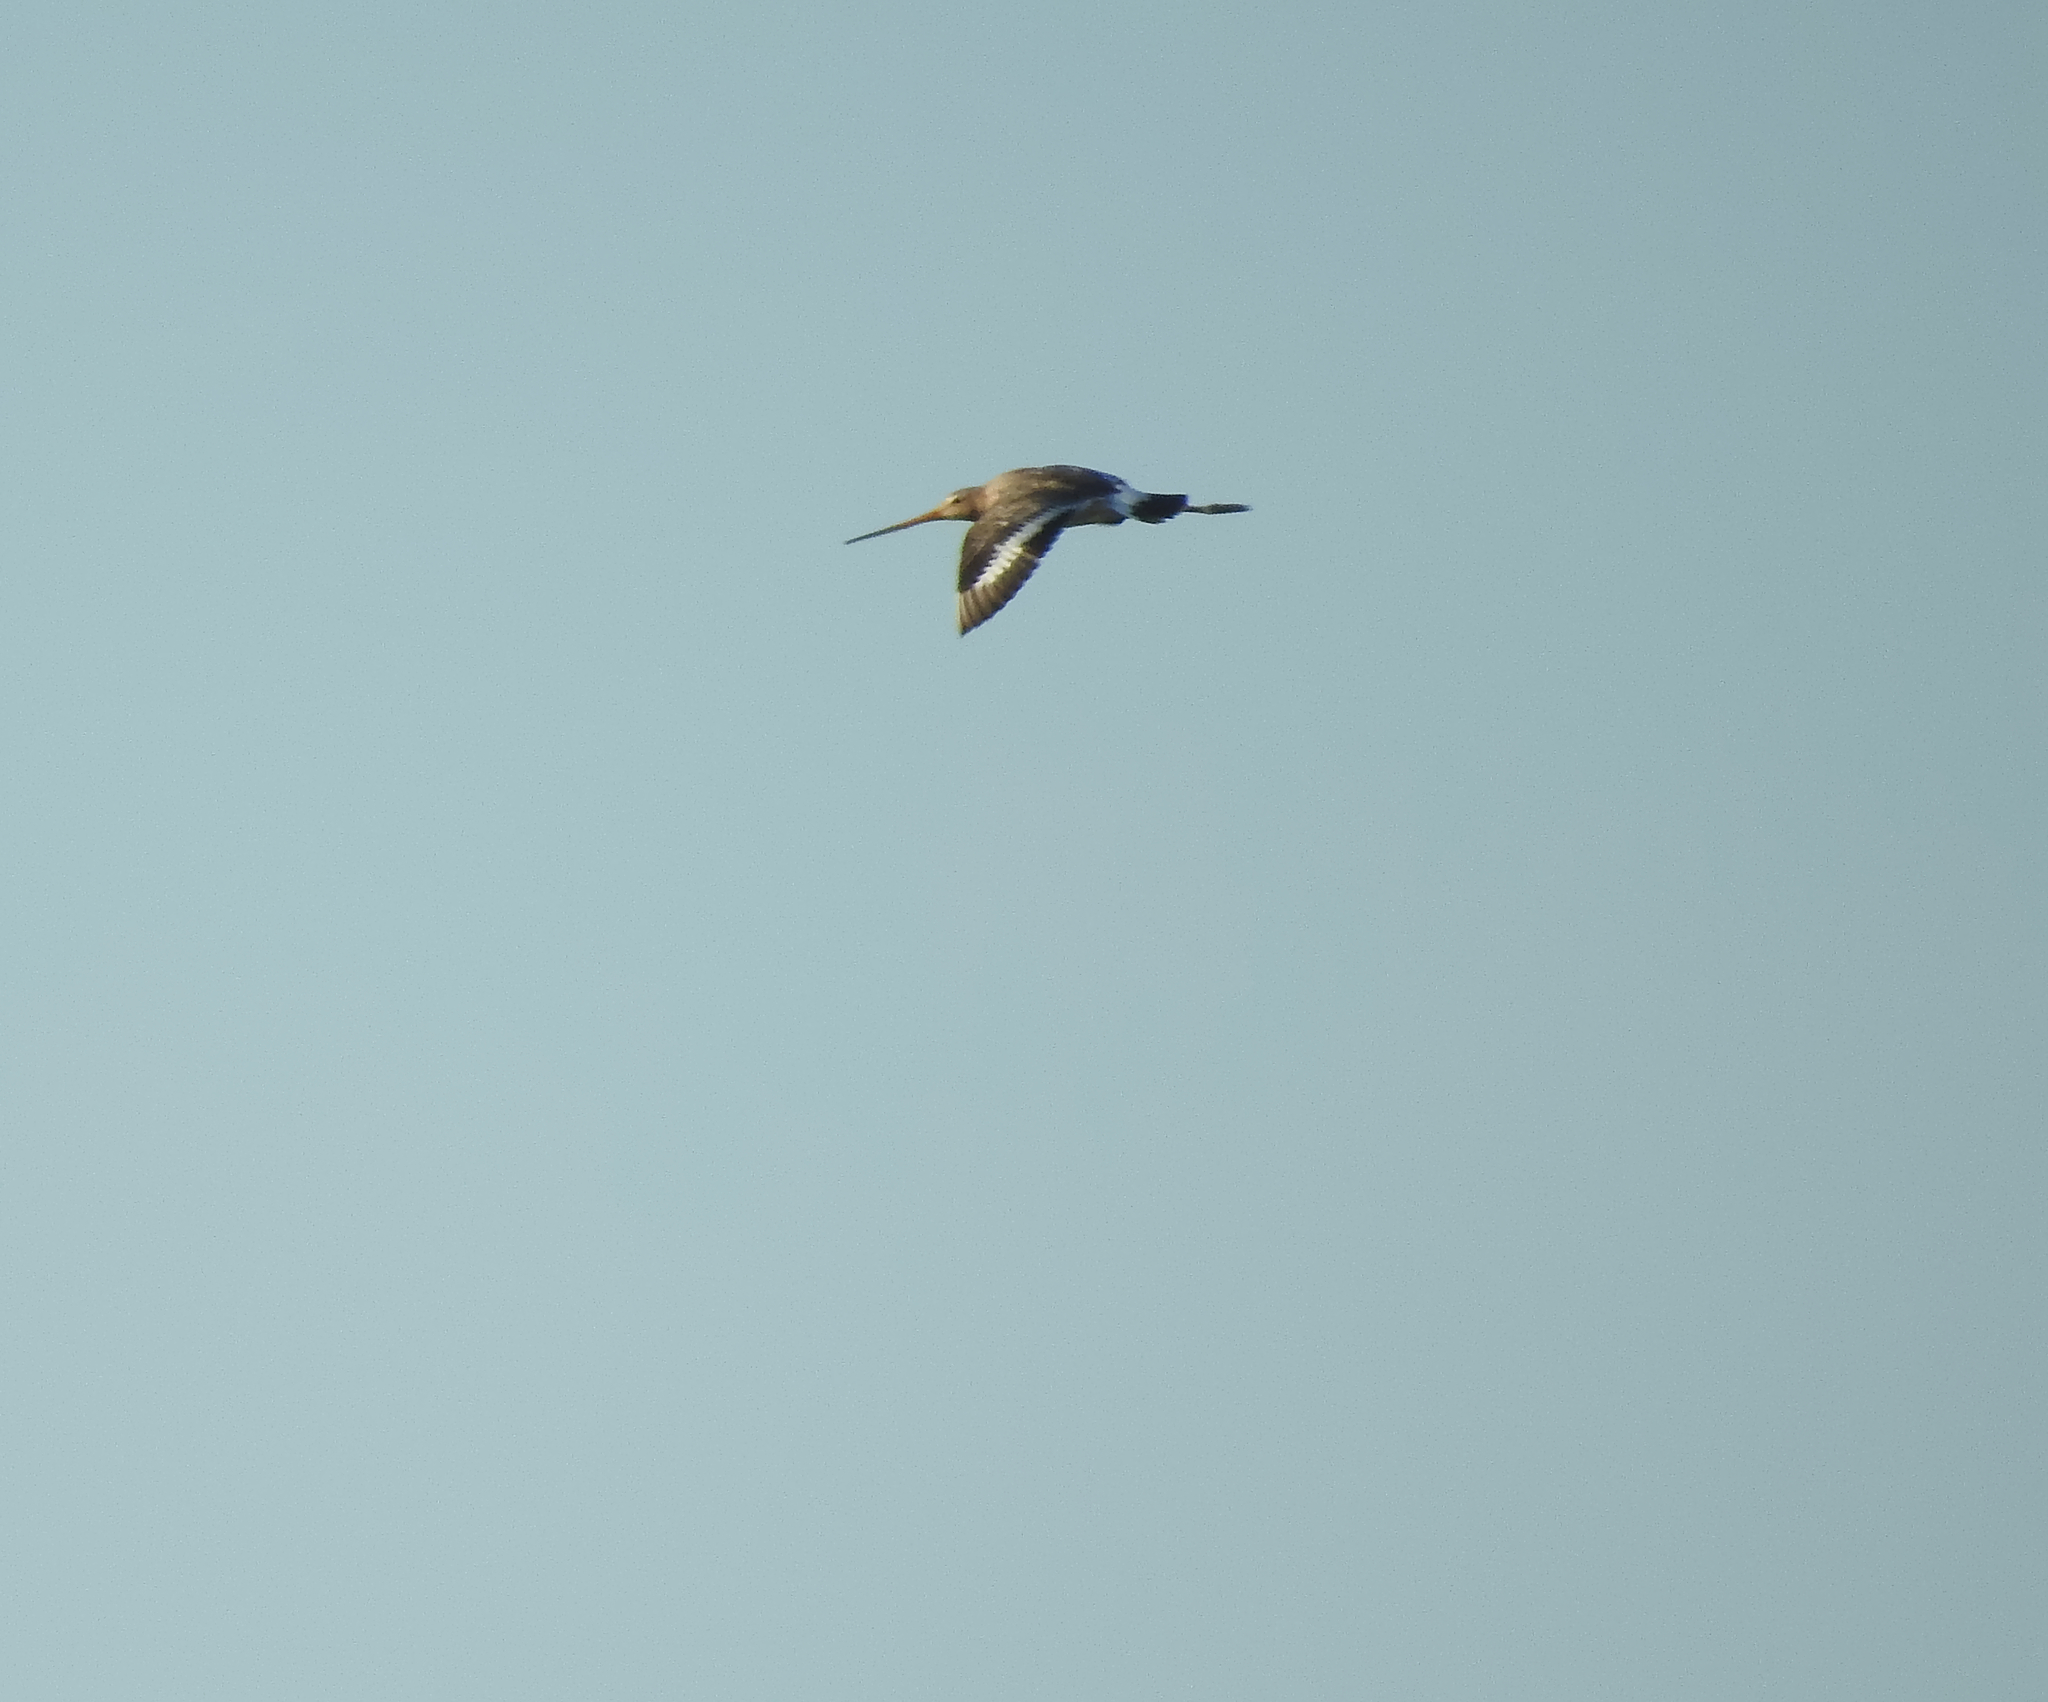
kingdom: Animalia
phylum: Chordata
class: Aves
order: Charadriiformes
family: Scolopacidae
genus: Limosa
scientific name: Limosa limosa
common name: Black-tailed godwit
